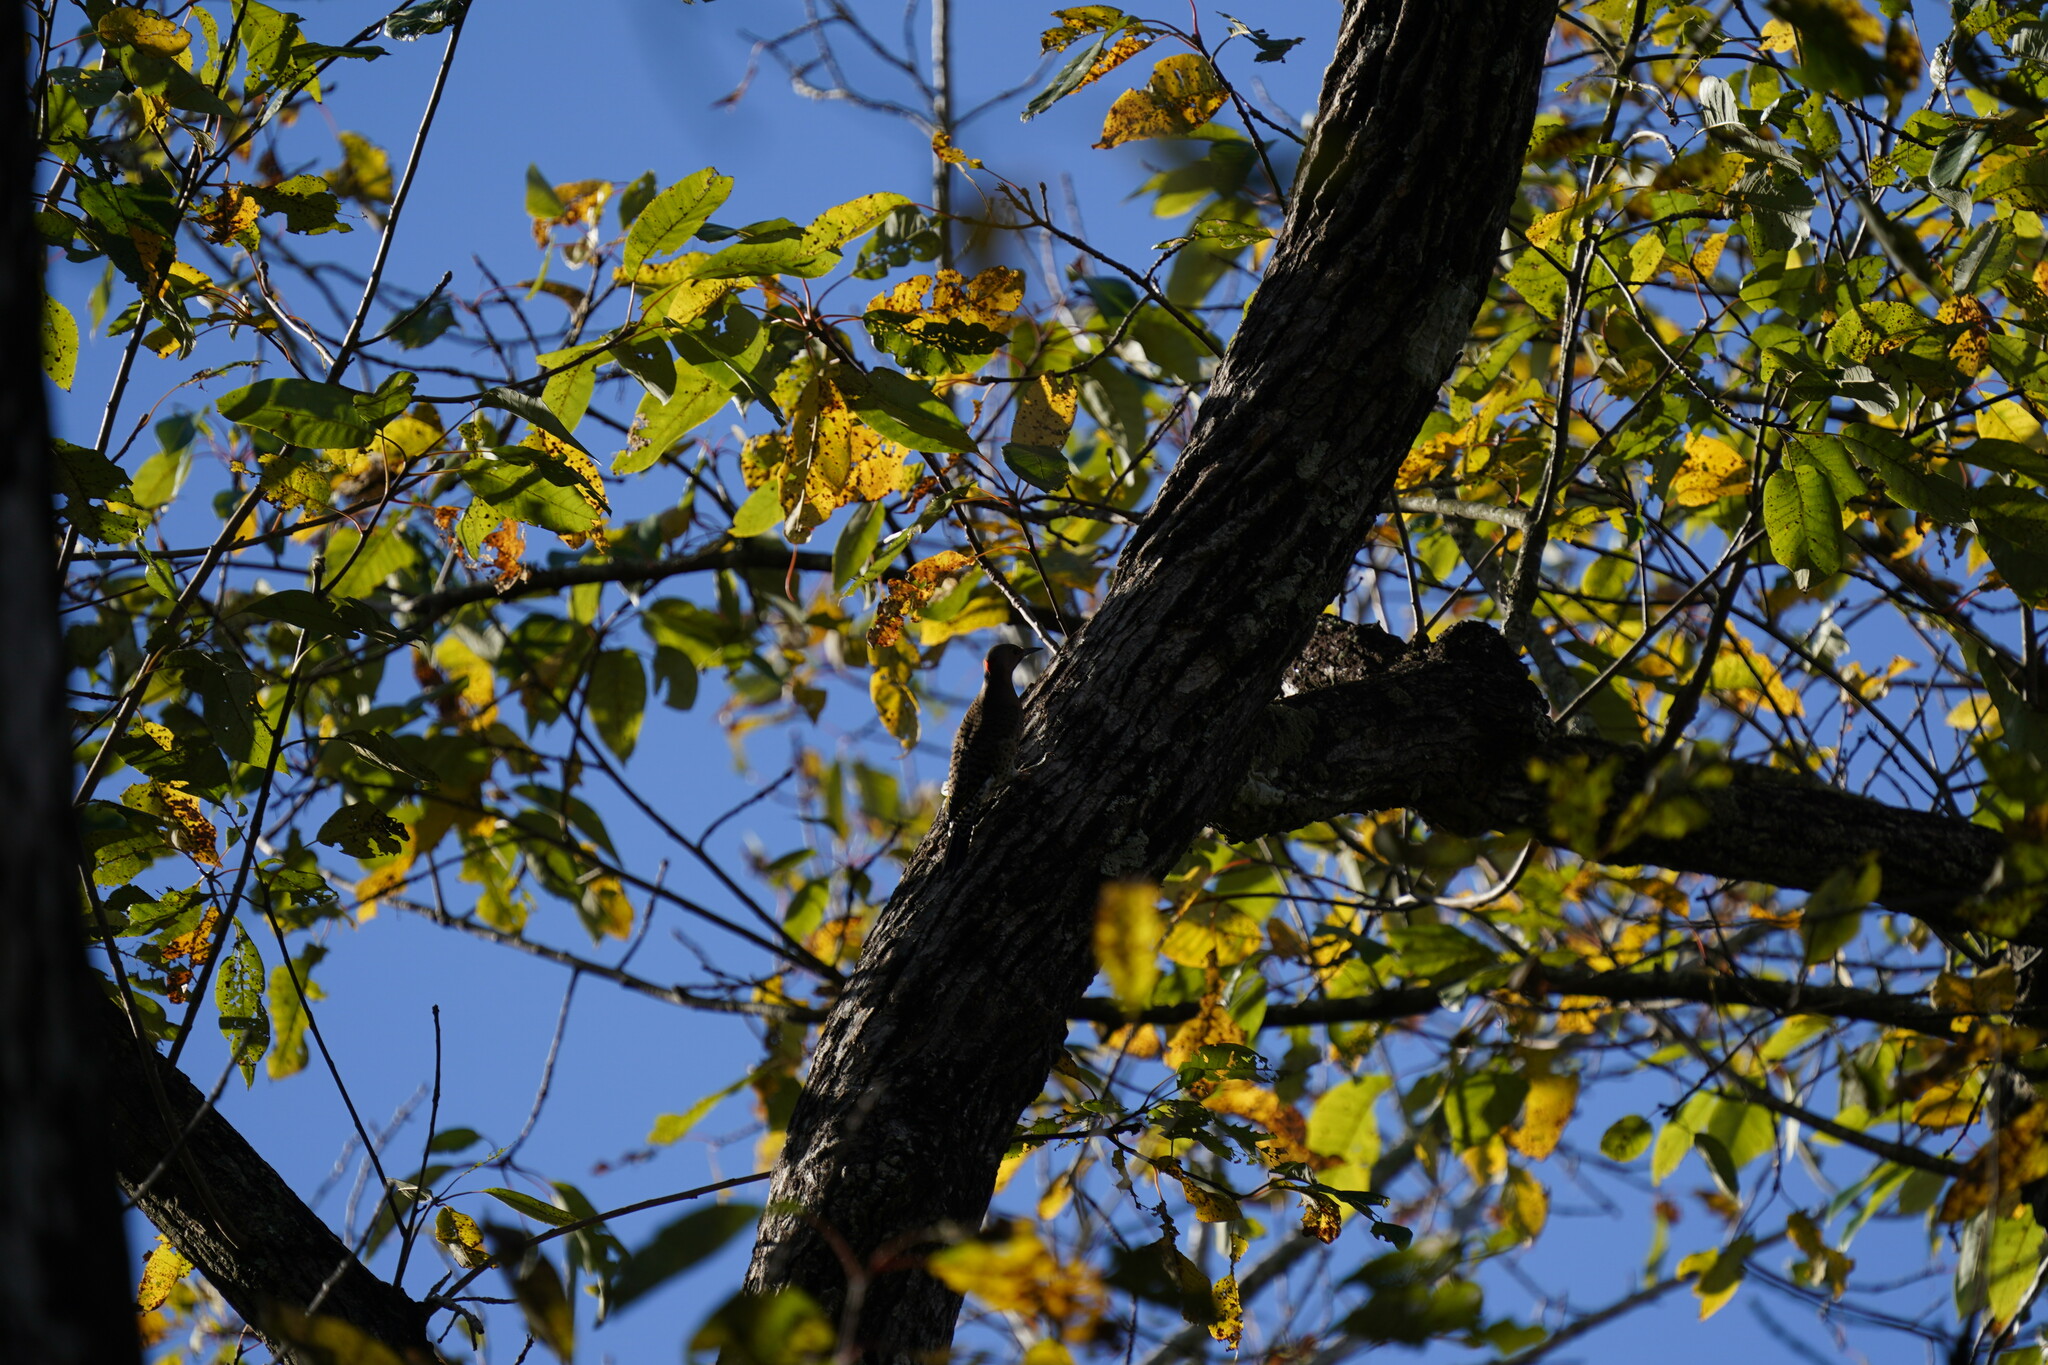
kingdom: Animalia
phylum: Chordata
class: Aves
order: Piciformes
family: Picidae
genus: Colaptes
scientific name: Colaptes auratus
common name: Northern flicker
